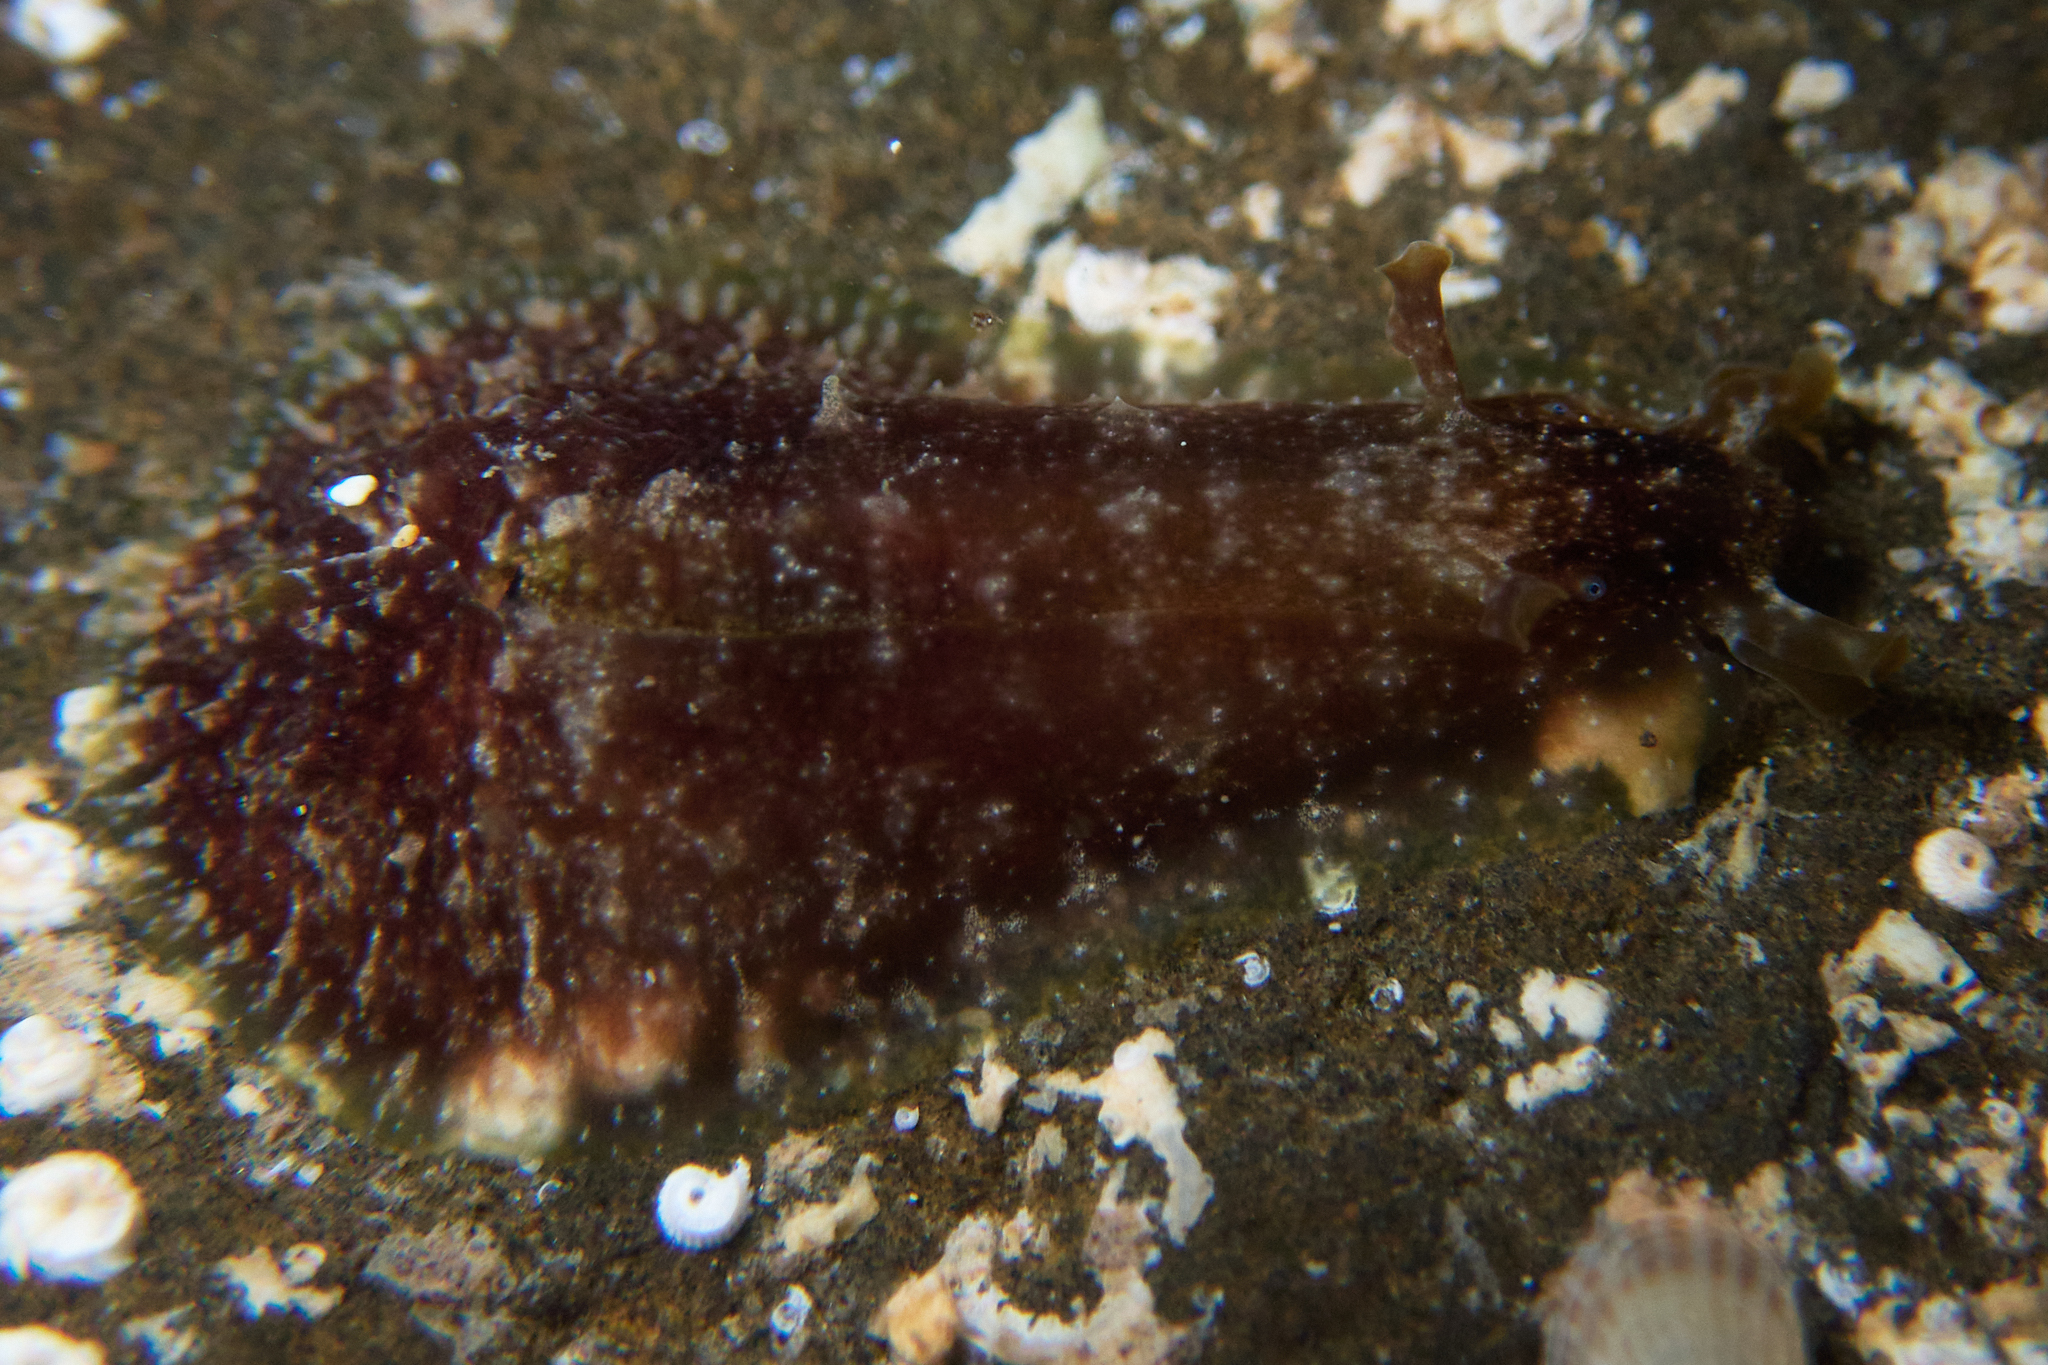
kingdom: Animalia
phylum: Mollusca
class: Gastropoda
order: Aplysiida
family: Aplysiidae
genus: Dolabrifera
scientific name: Dolabrifera dolabrifera
